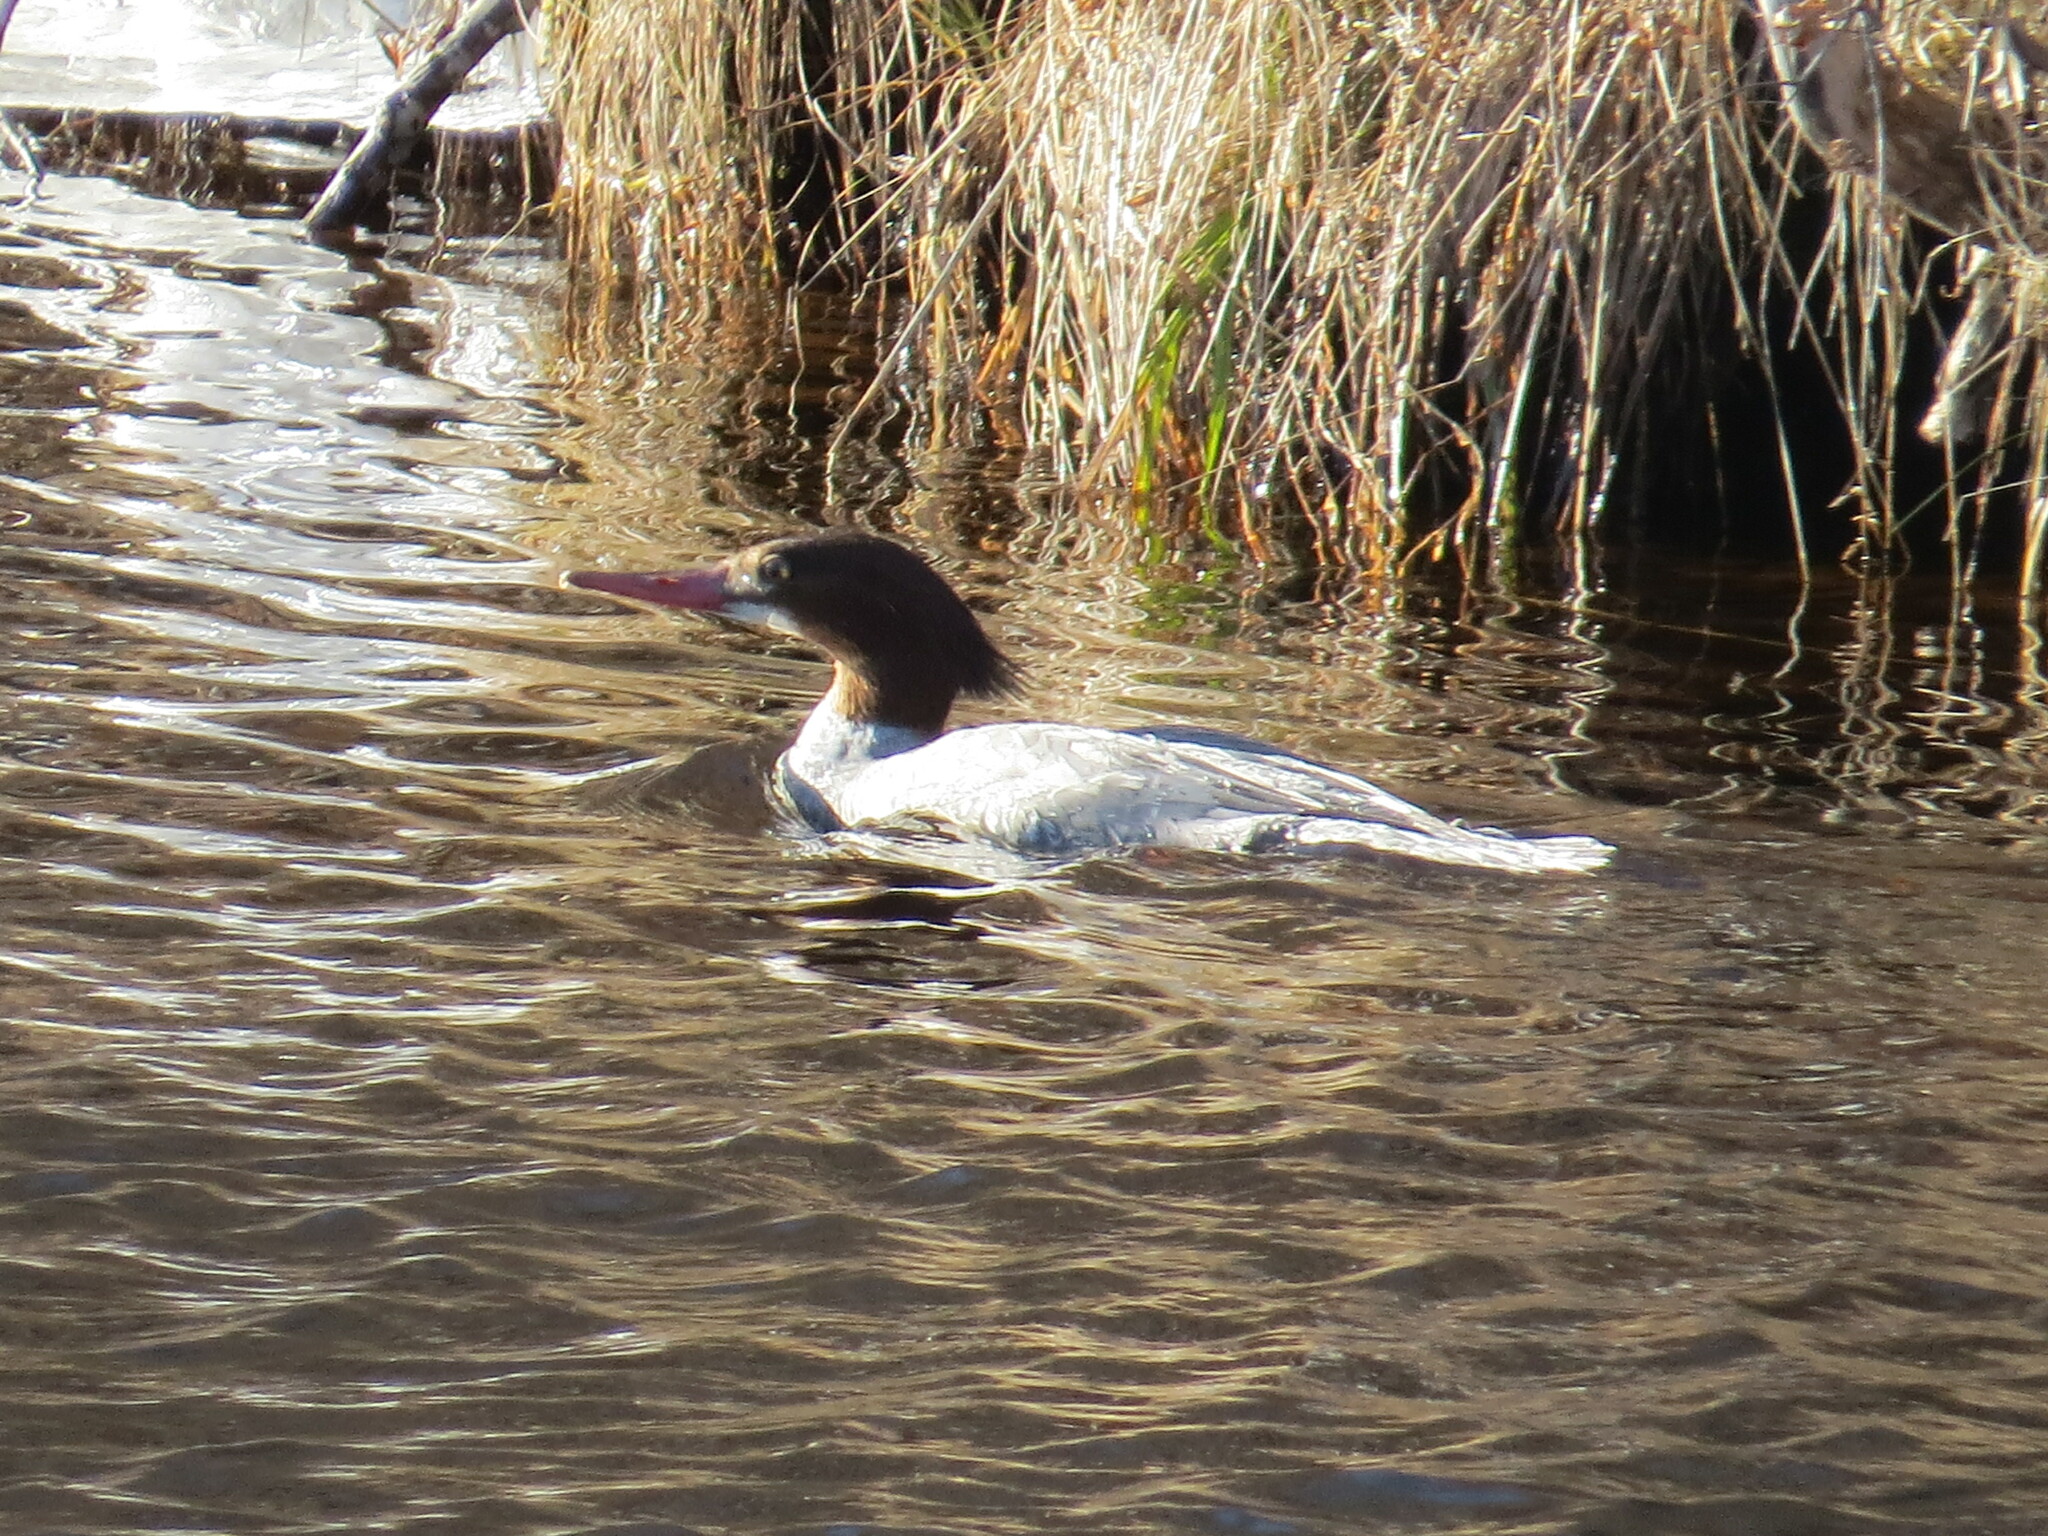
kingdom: Animalia
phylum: Chordata
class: Aves
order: Anseriformes
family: Anatidae
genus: Mergus
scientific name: Mergus merganser
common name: Common merganser
